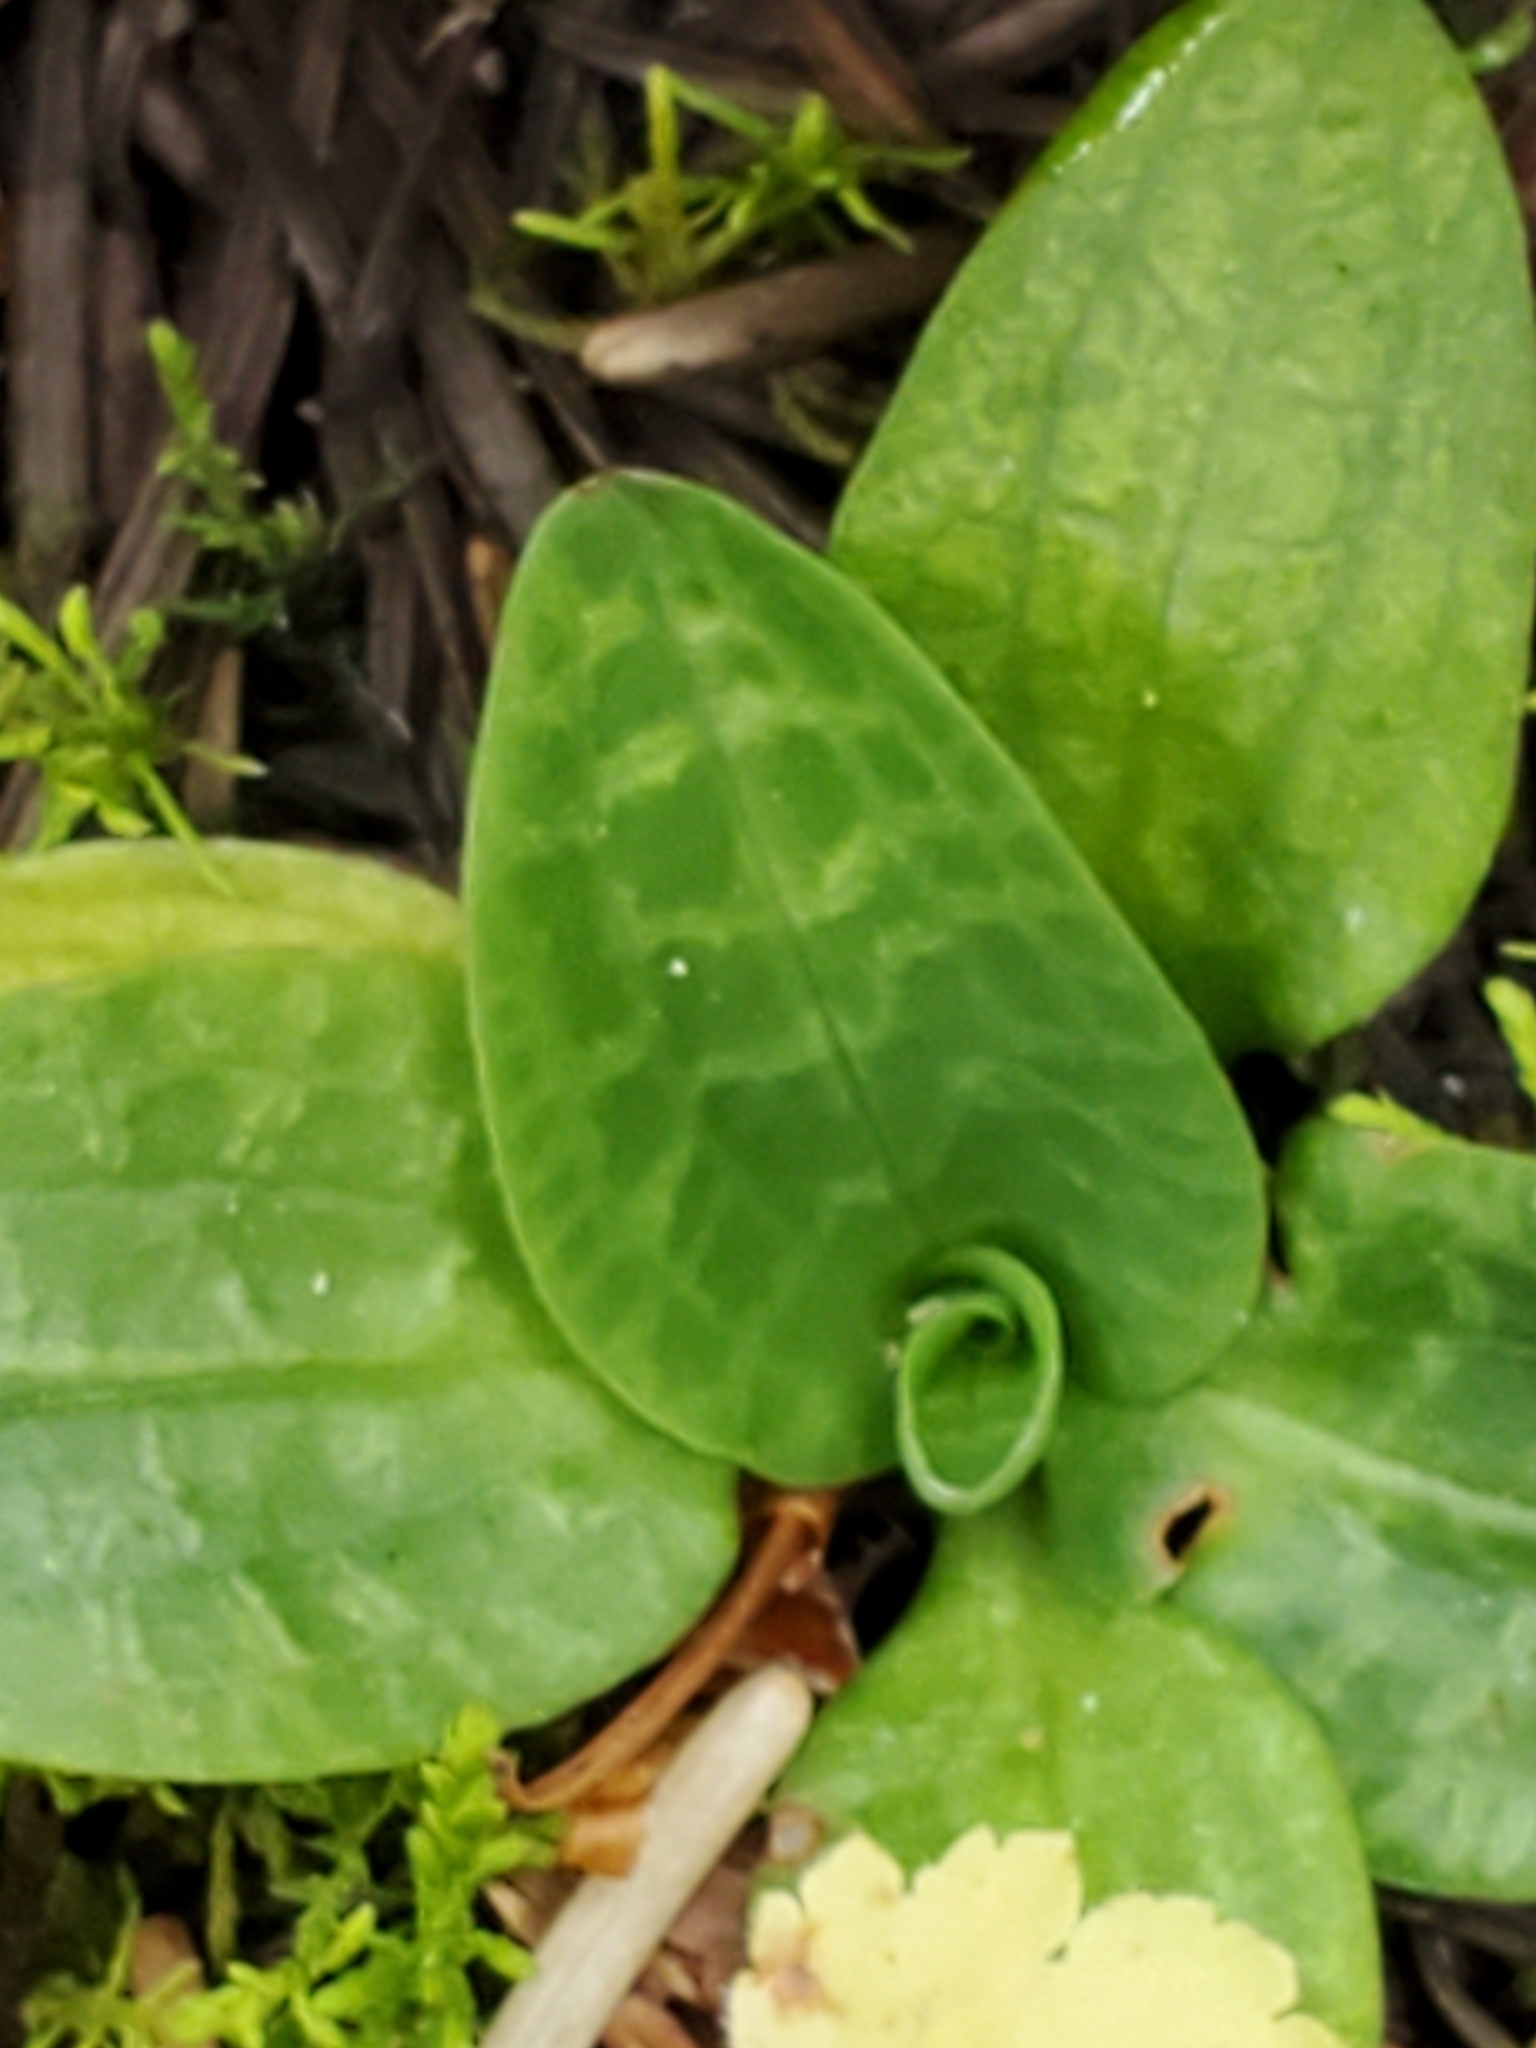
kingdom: Plantae
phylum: Tracheophyta
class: Liliopsida
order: Asparagales
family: Orchidaceae
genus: Goodyera
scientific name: Goodyera repens
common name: Creeping lady's-tresses
